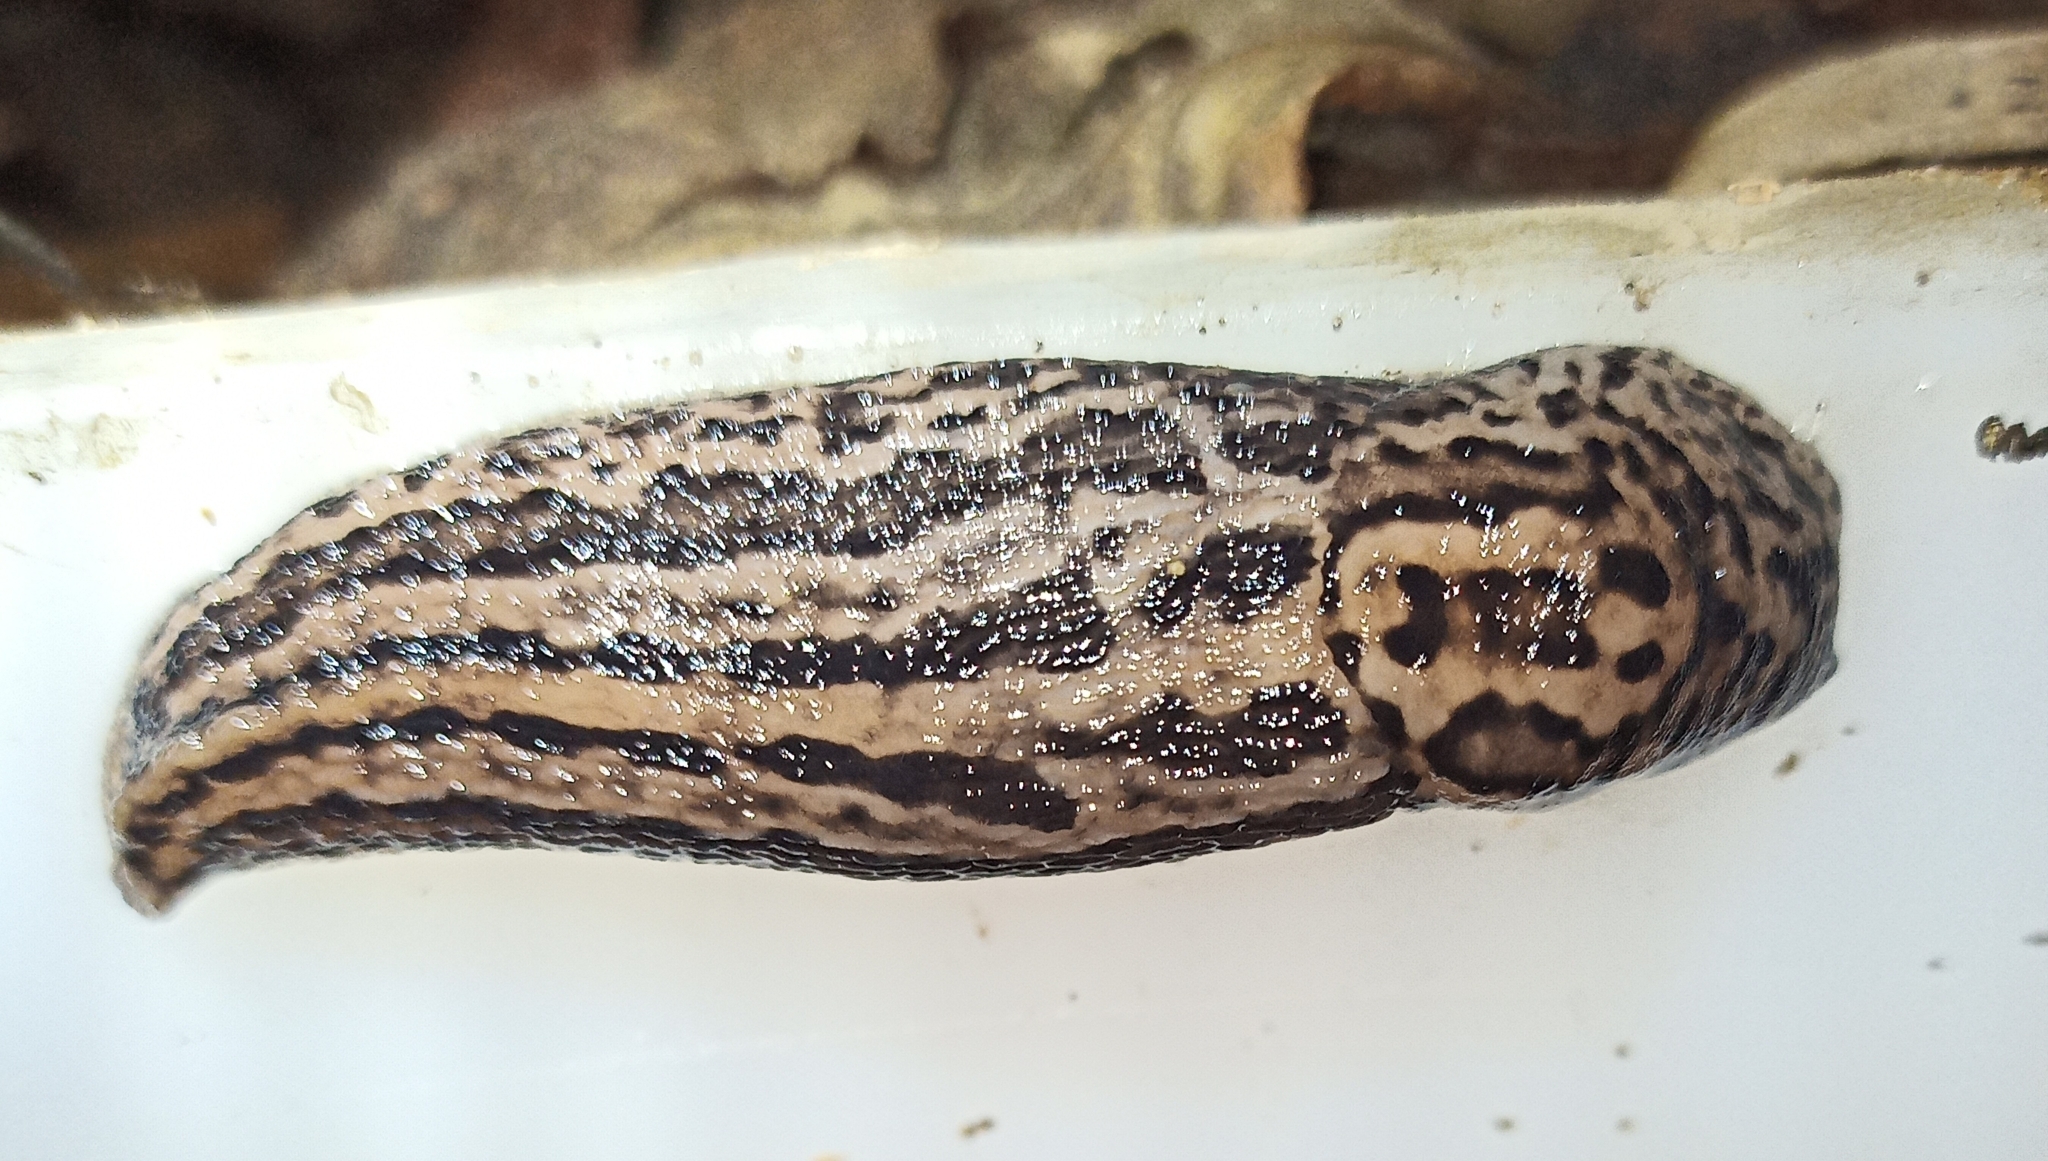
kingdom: Animalia
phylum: Mollusca
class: Gastropoda
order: Stylommatophora
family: Limacidae
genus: Limax
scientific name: Limax maximus
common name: Great grey slug
